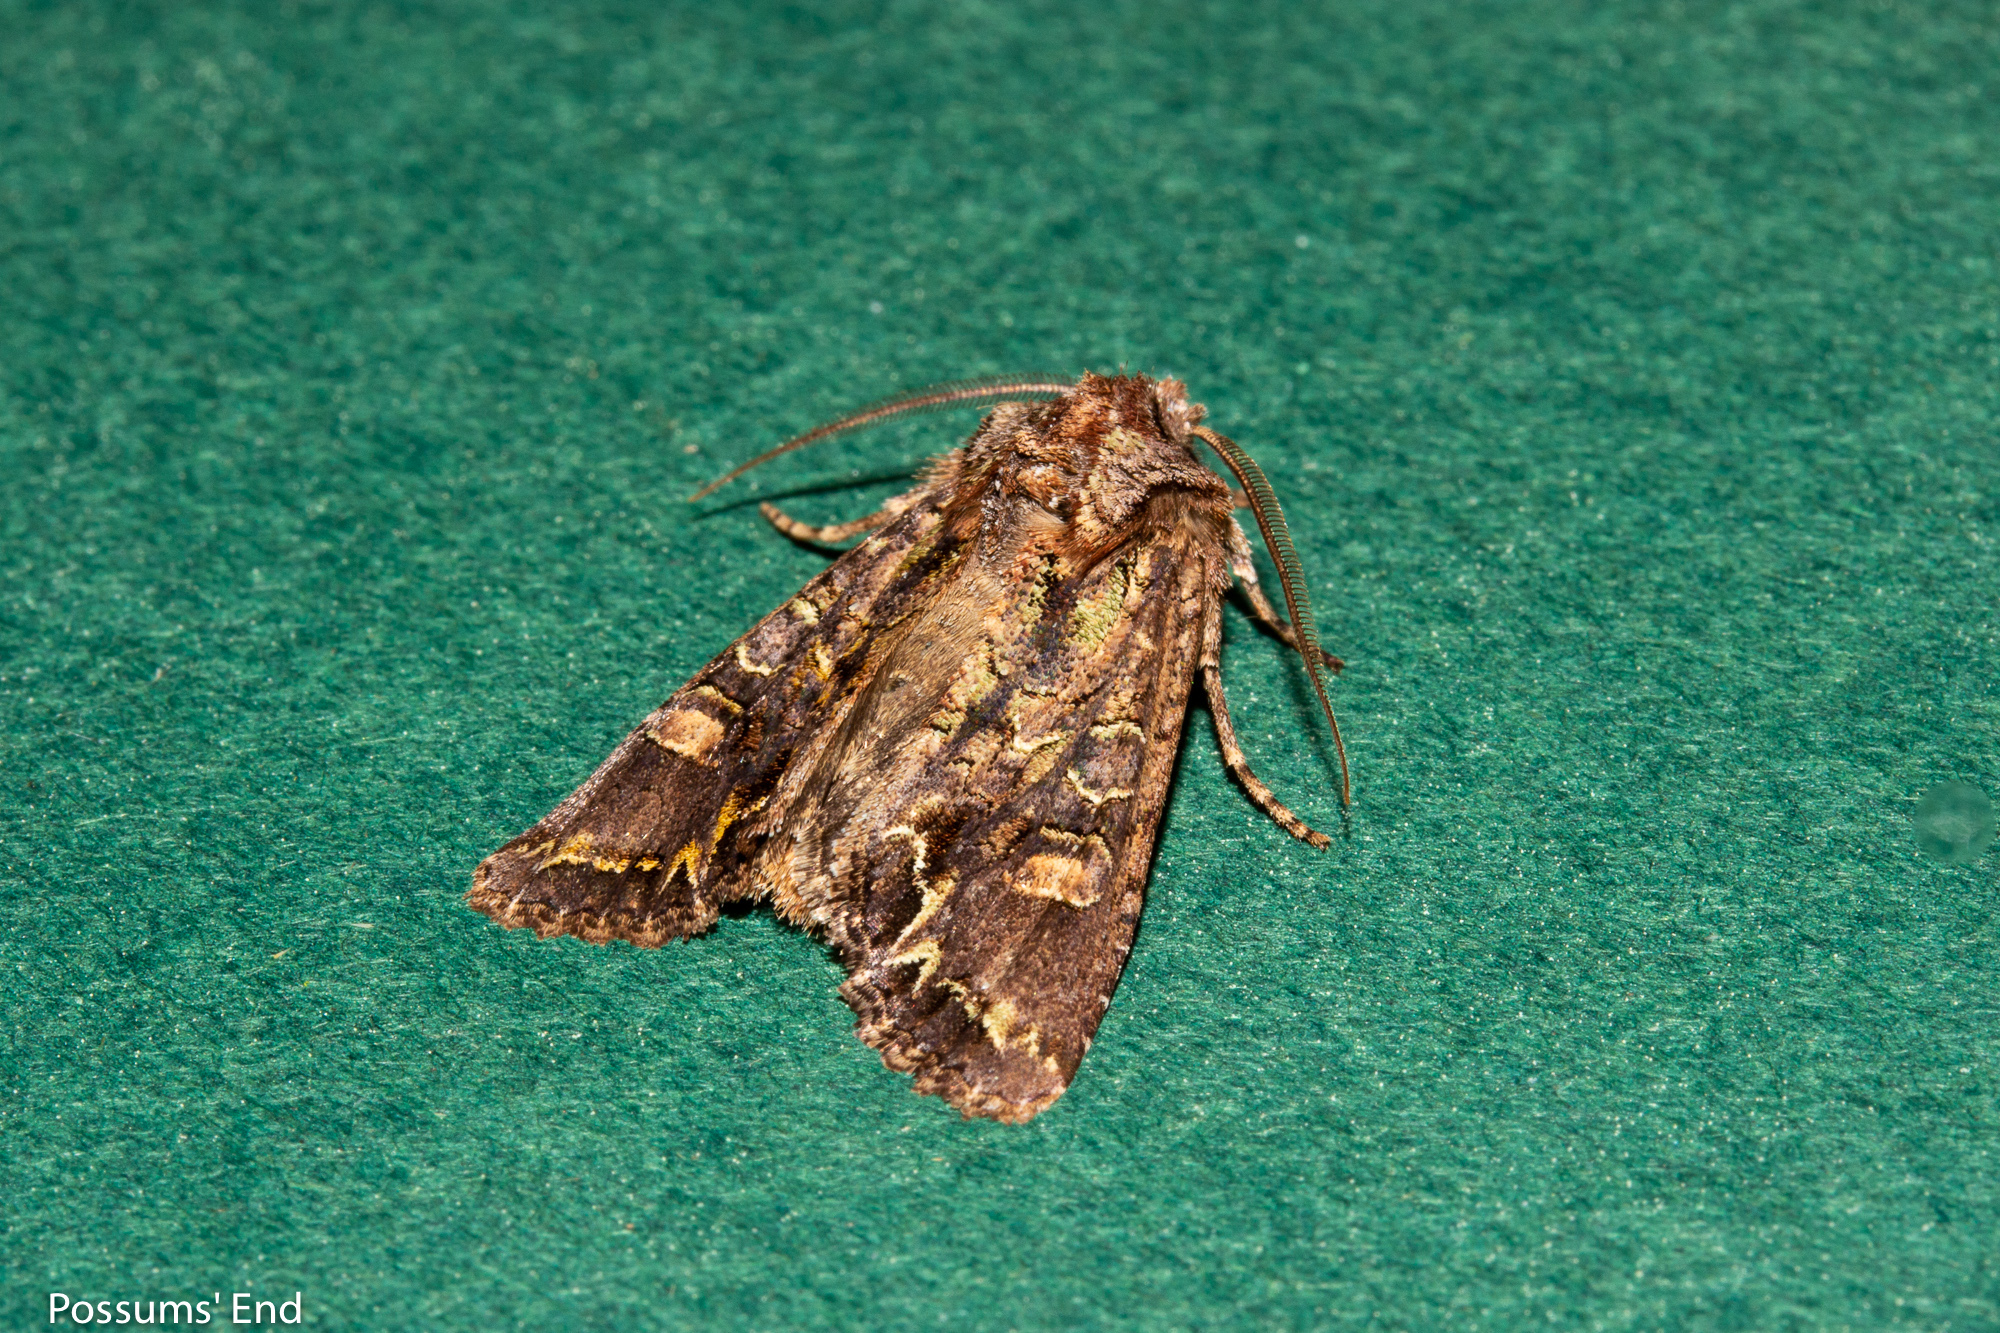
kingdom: Animalia
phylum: Arthropoda
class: Insecta
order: Lepidoptera
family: Noctuidae
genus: Ichneutica
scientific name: Ichneutica insignis
